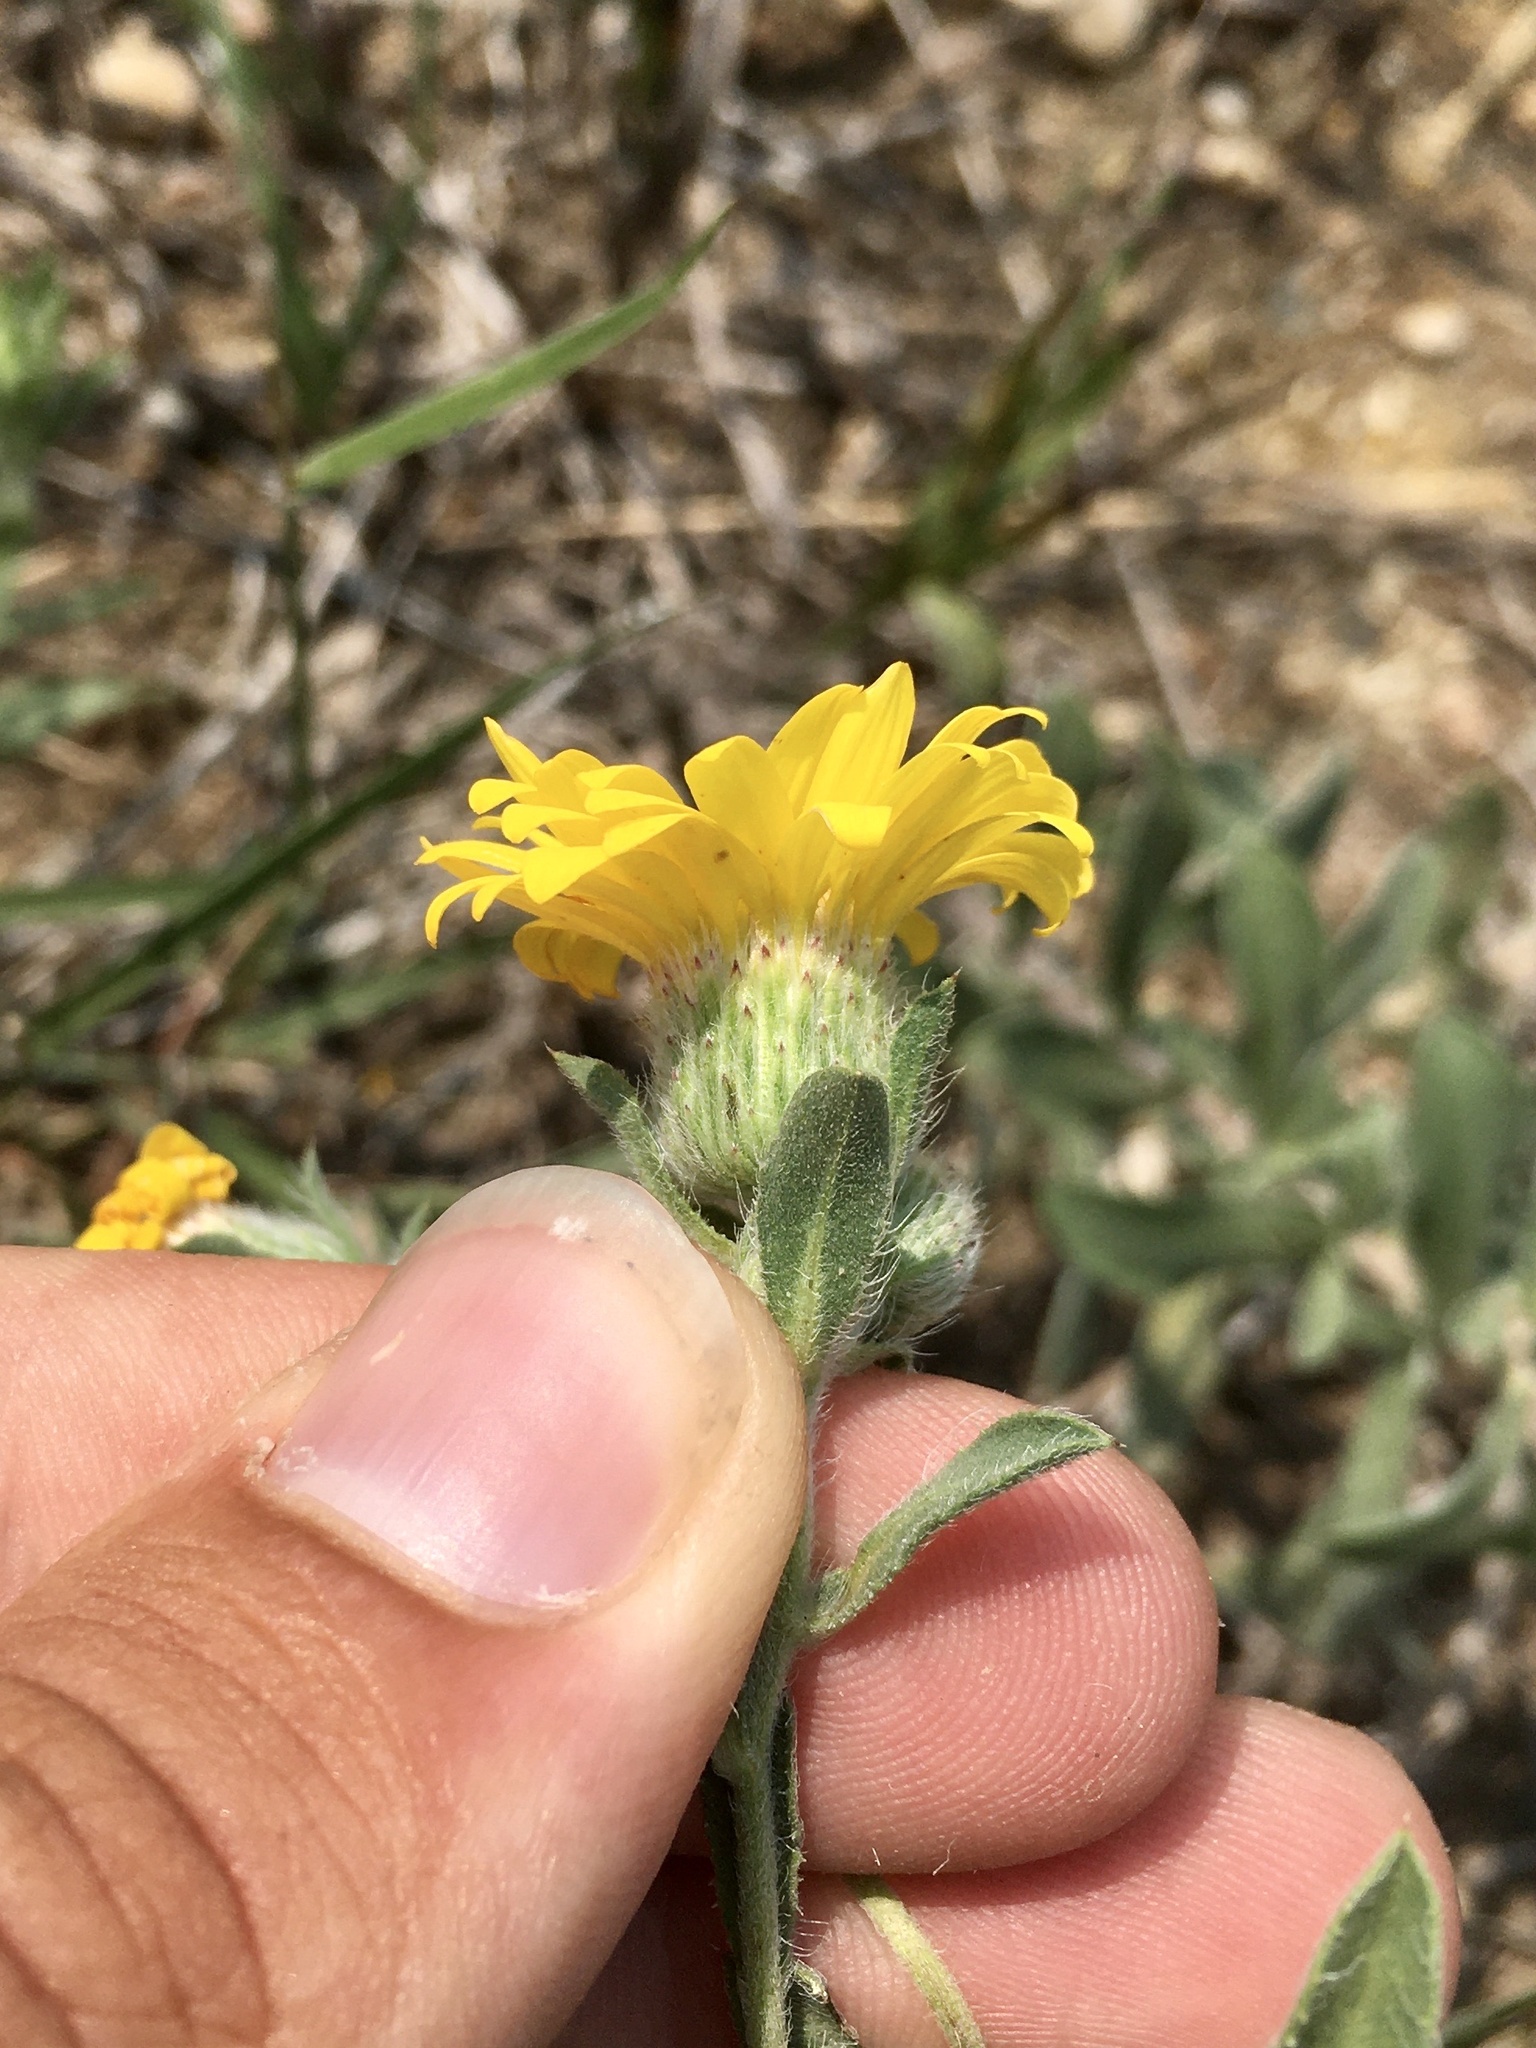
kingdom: Plantae
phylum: Tracheophyta
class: Magnoliopsida
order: Asterales
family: Asteraceae
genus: Heterotheca
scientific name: Heterotheca villosa
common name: Hairy false goldenaster
